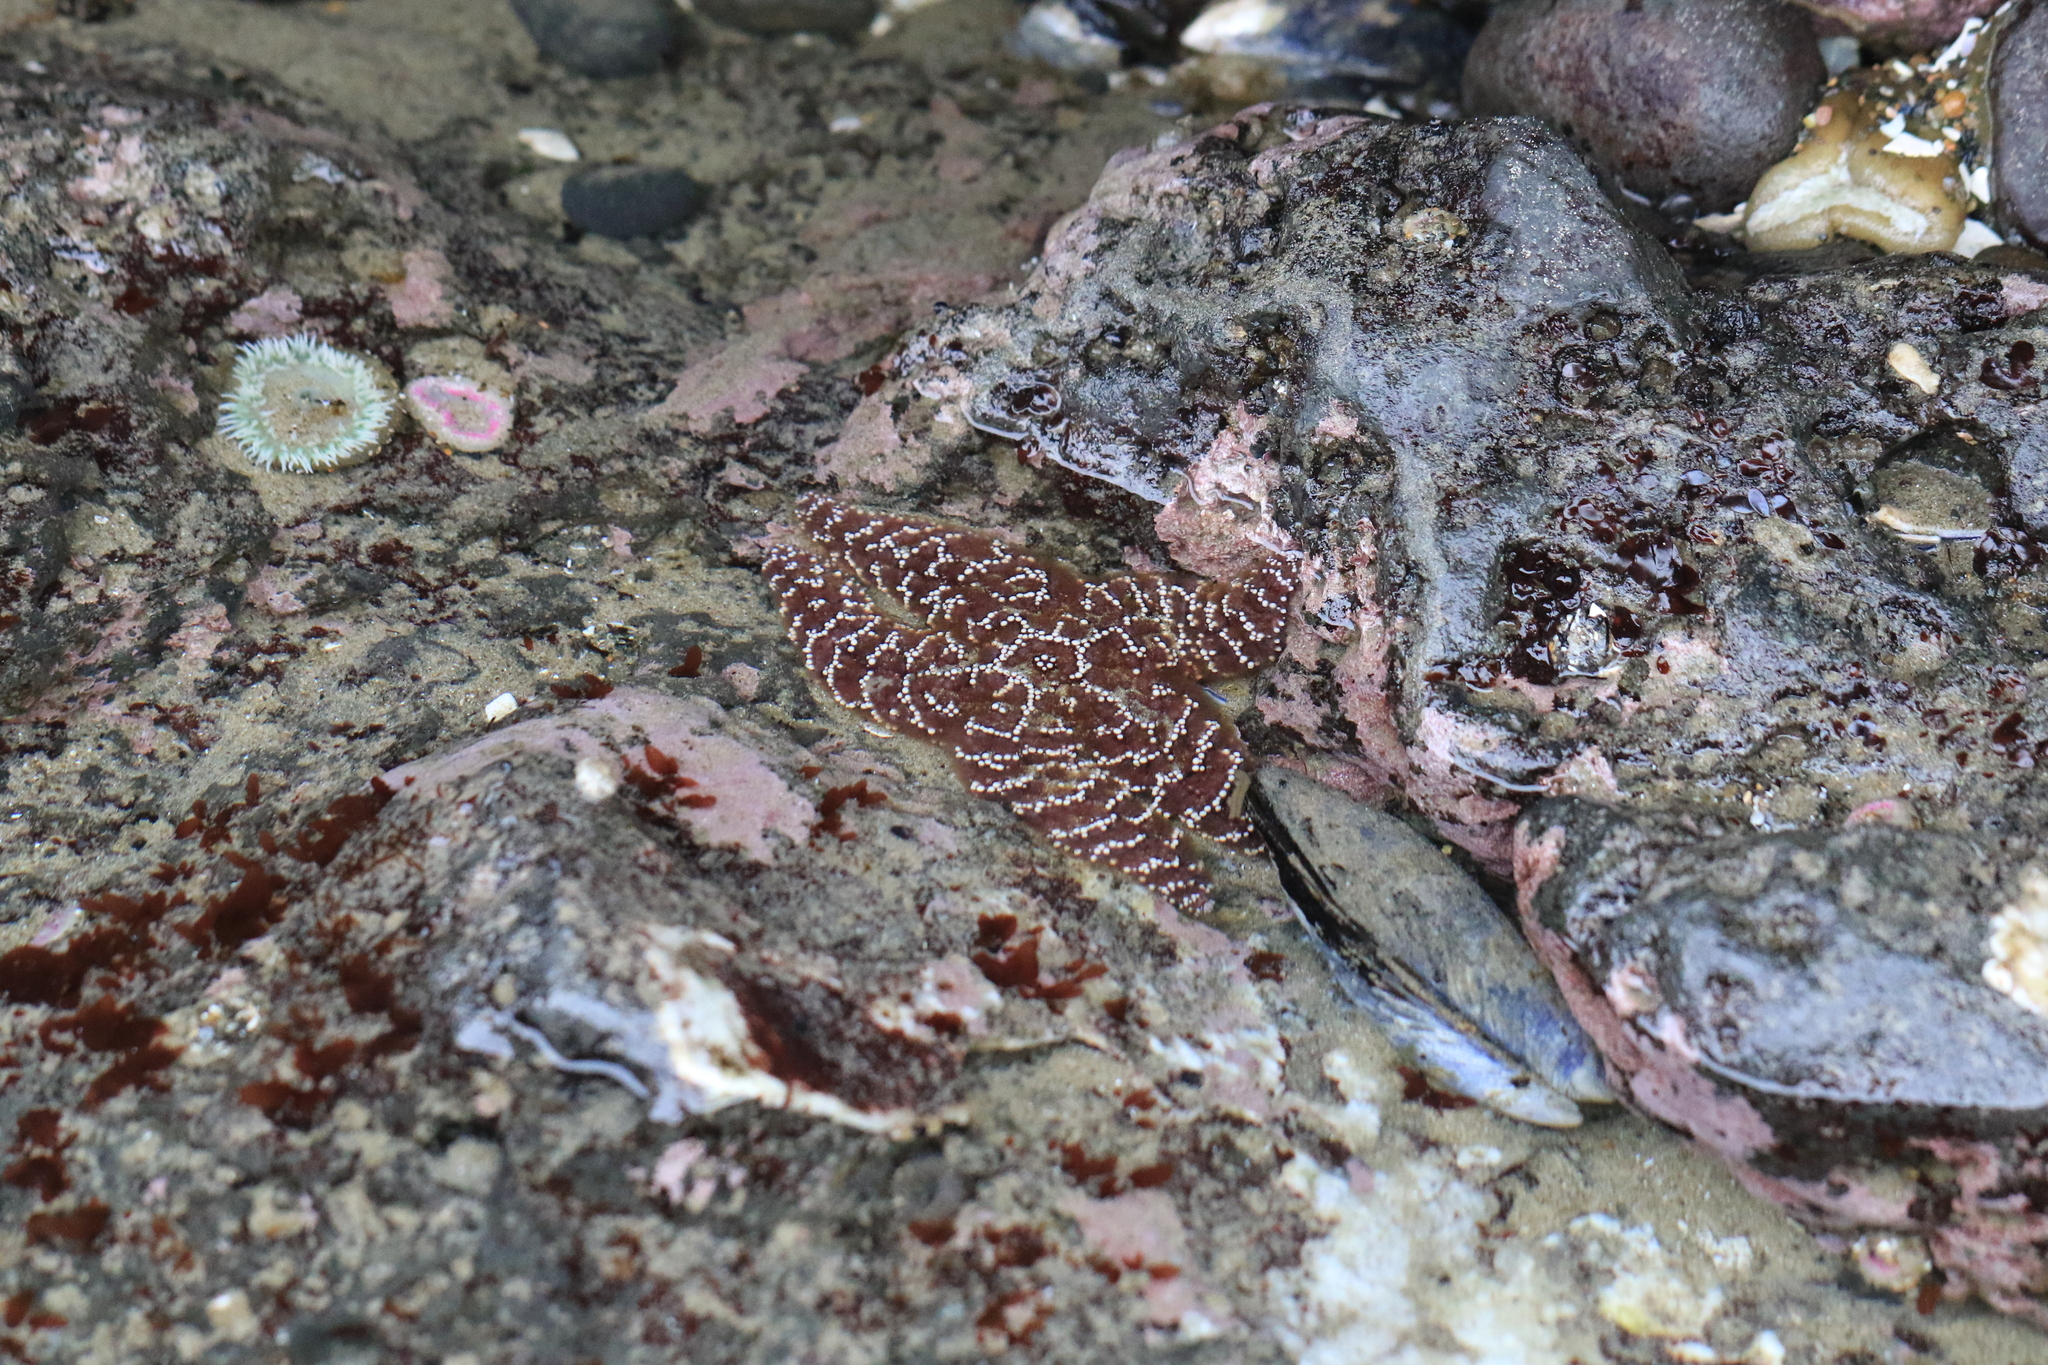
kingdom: Animalia
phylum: Echinodermata
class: Asteroidea
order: Forcipulatida
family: Asteriidae
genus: Pisaster
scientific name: Pisaster ochraceus
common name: Ochre stars
